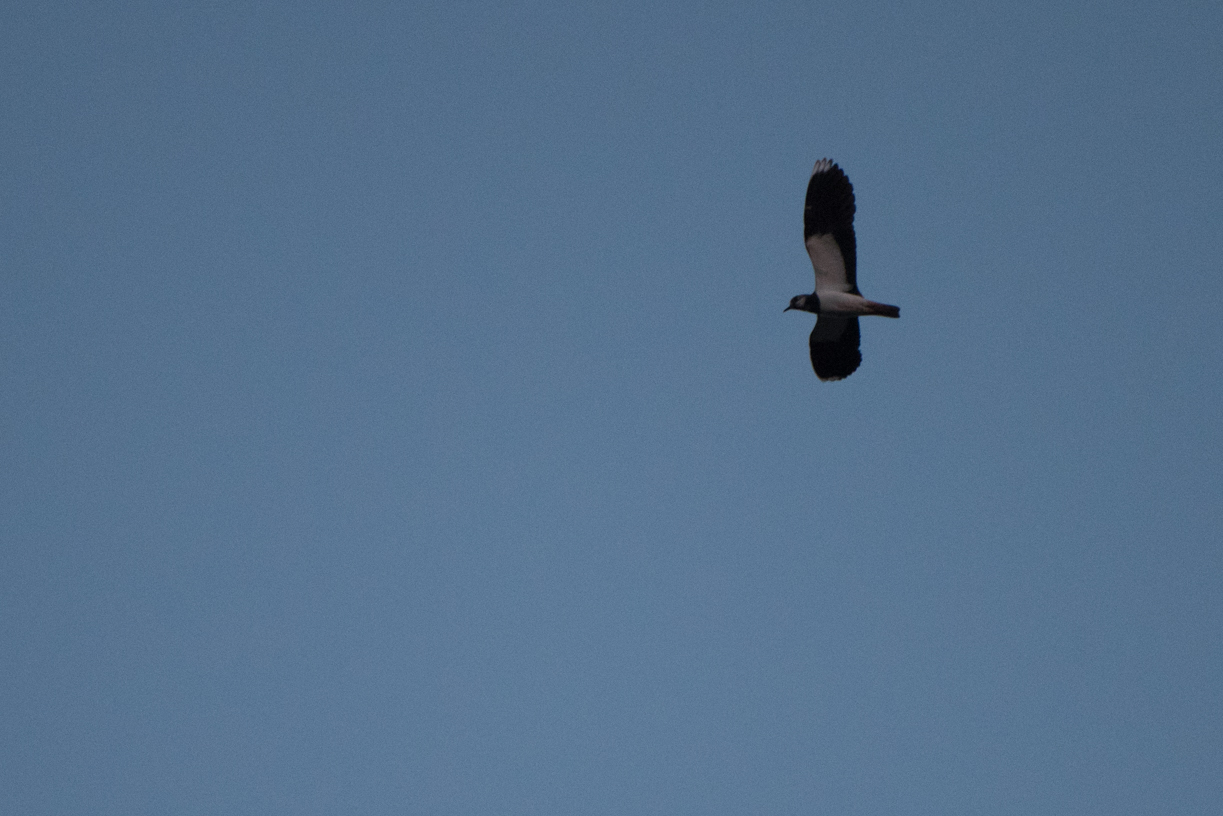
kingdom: Animalia
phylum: Chordata
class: Aves
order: Charadriiformes
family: Charadriidae
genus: Vanellus
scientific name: Vanellus vanellus
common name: Northern lapwing
